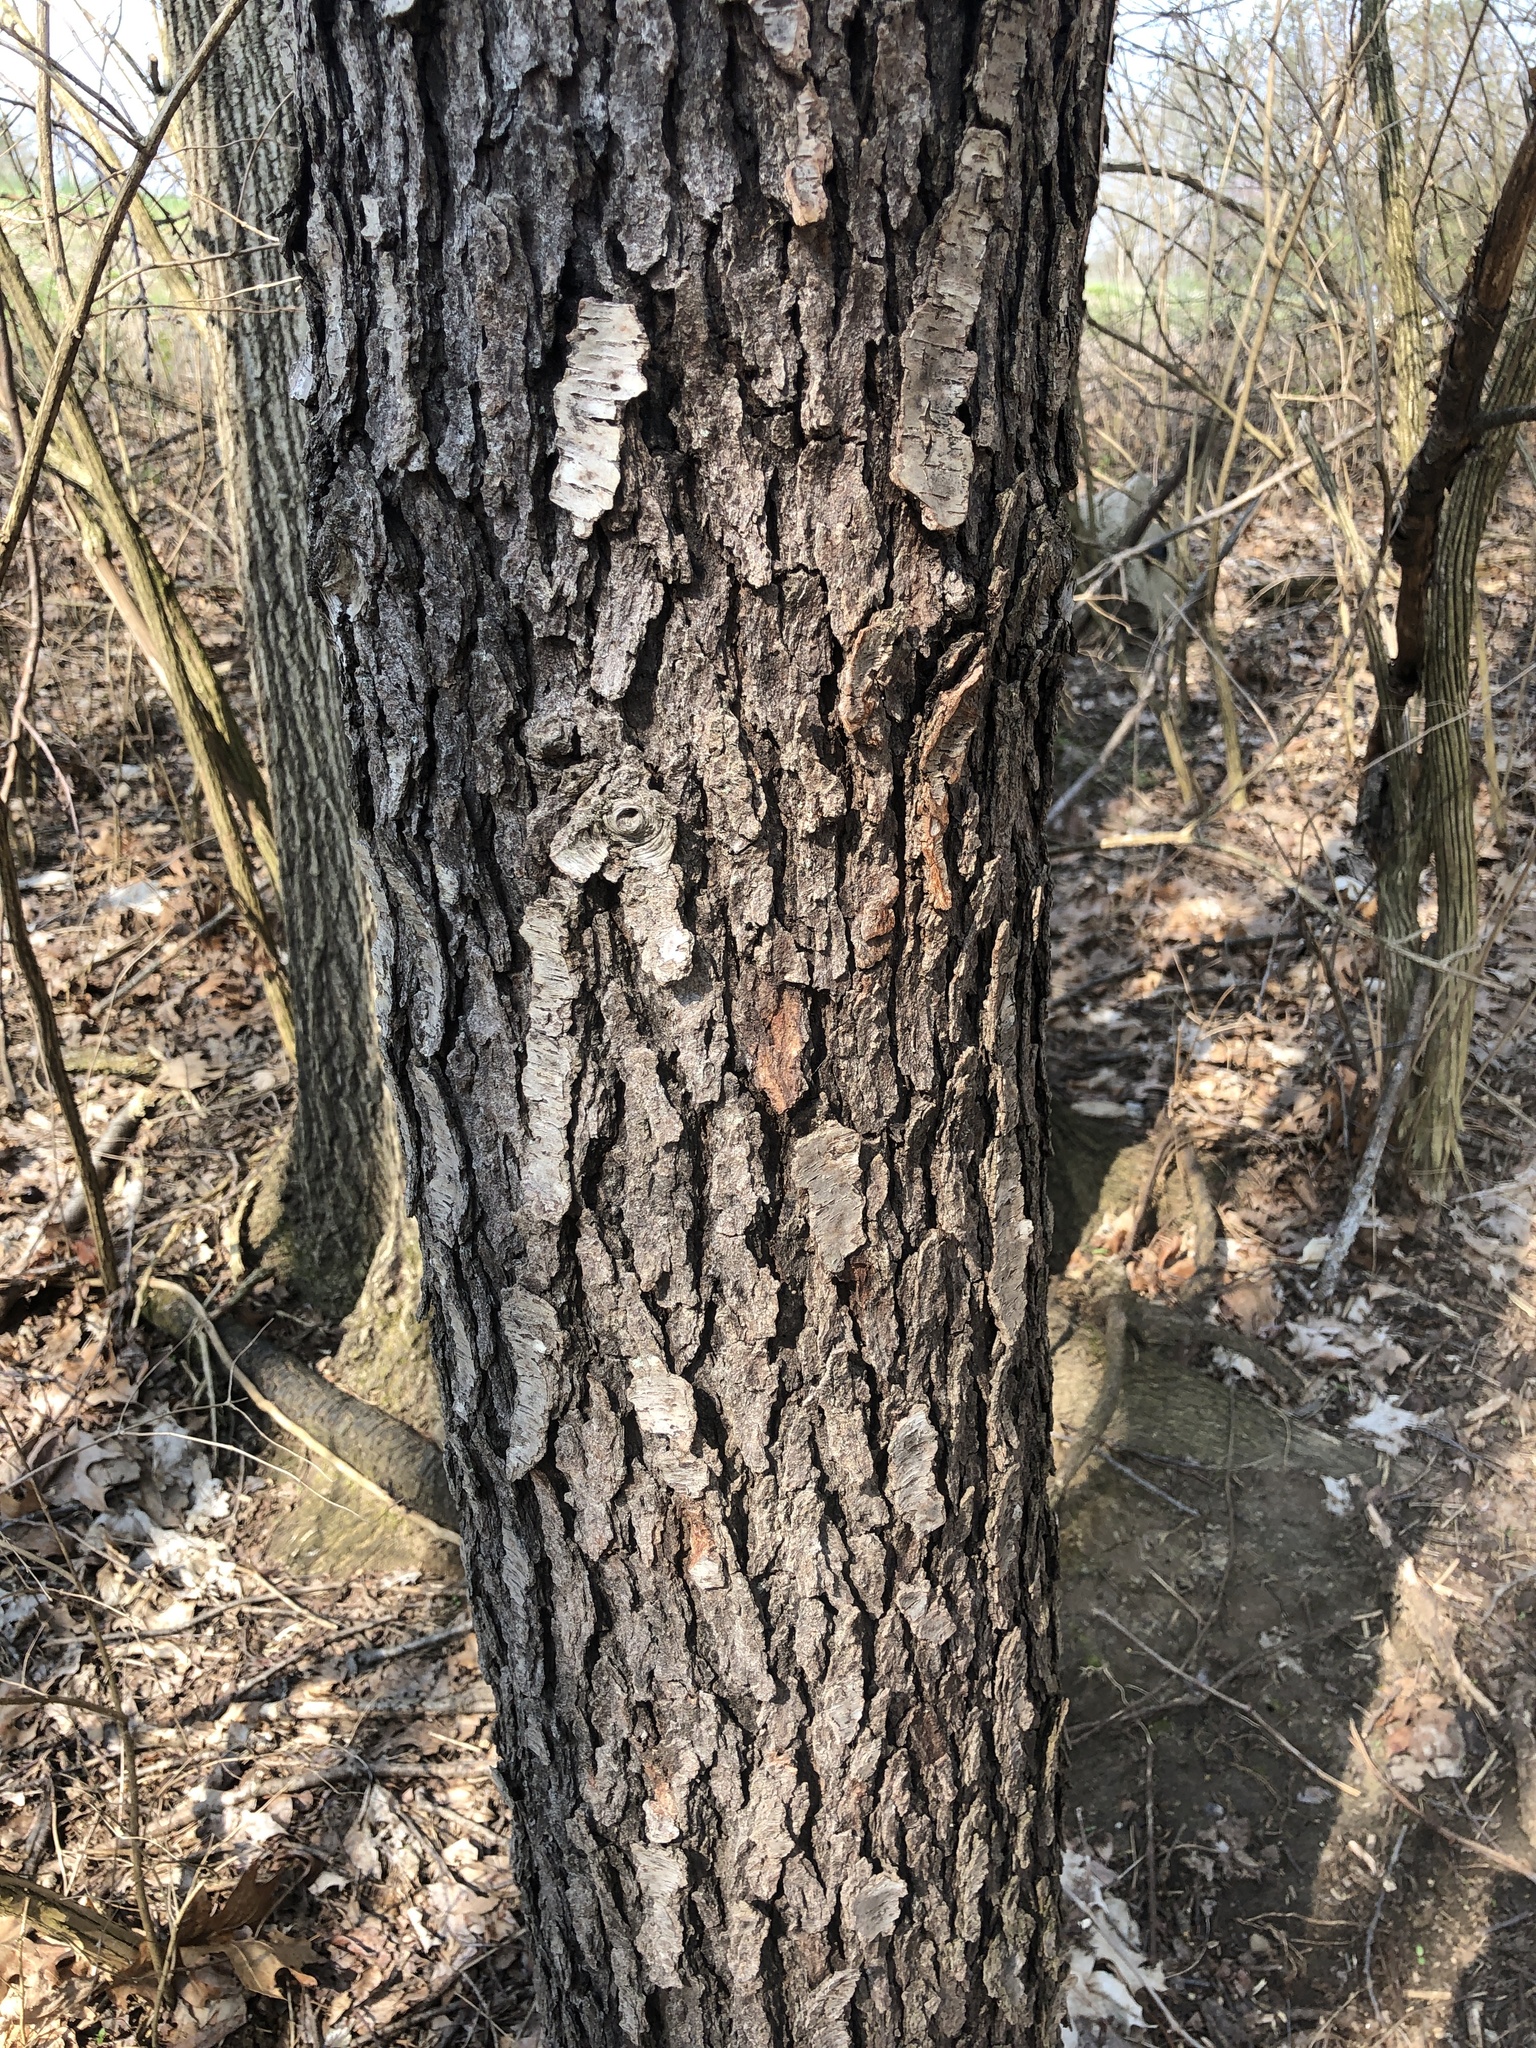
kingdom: Plantae
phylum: Tracheophyta
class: Magnoliopsida
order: Rosales
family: Rosaceae
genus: Prunus
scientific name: Prunus serotina
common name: Black cherry
